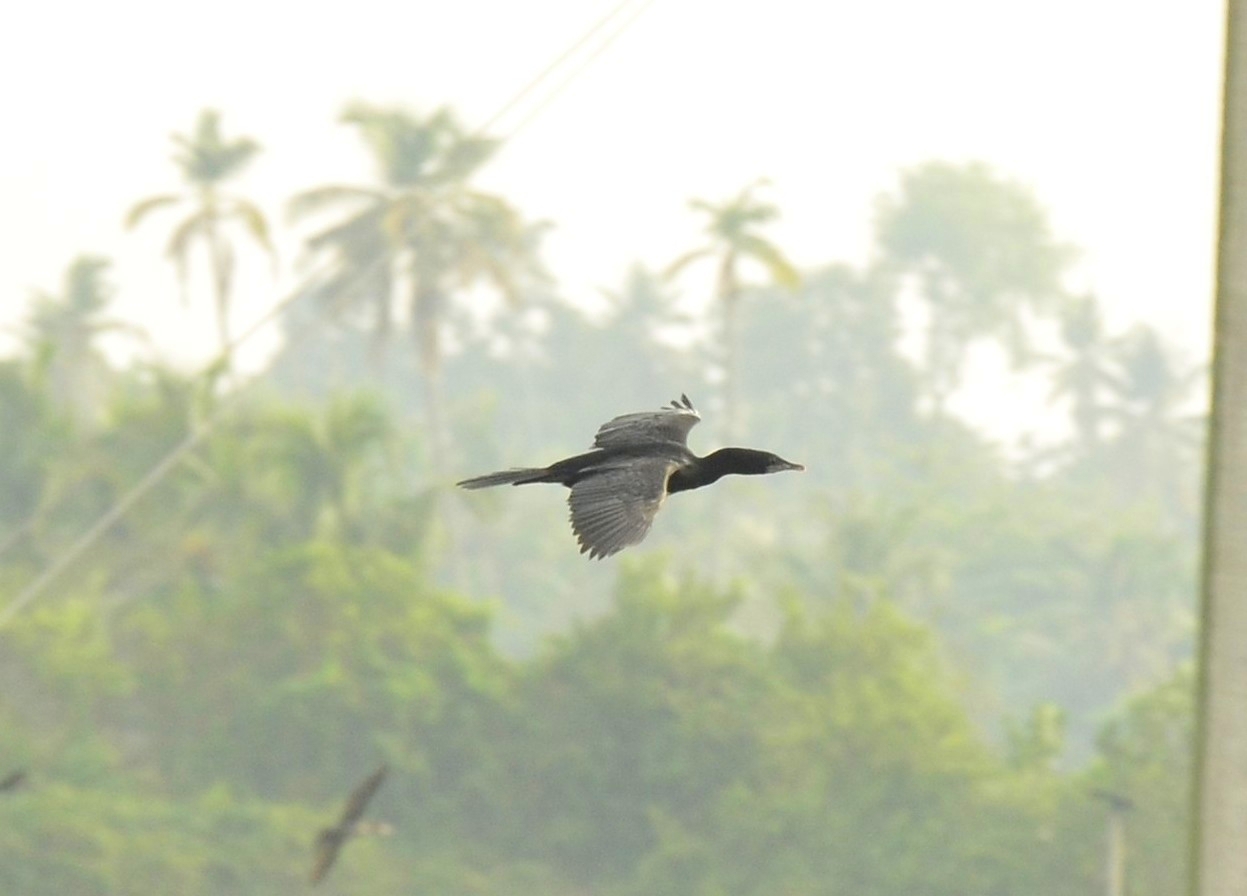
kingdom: Animalia
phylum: Chordata
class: Aves
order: Suliformes
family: Phalacrocoracidae
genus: Microcarbo
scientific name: Microcarbo niger
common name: Little cormorant
